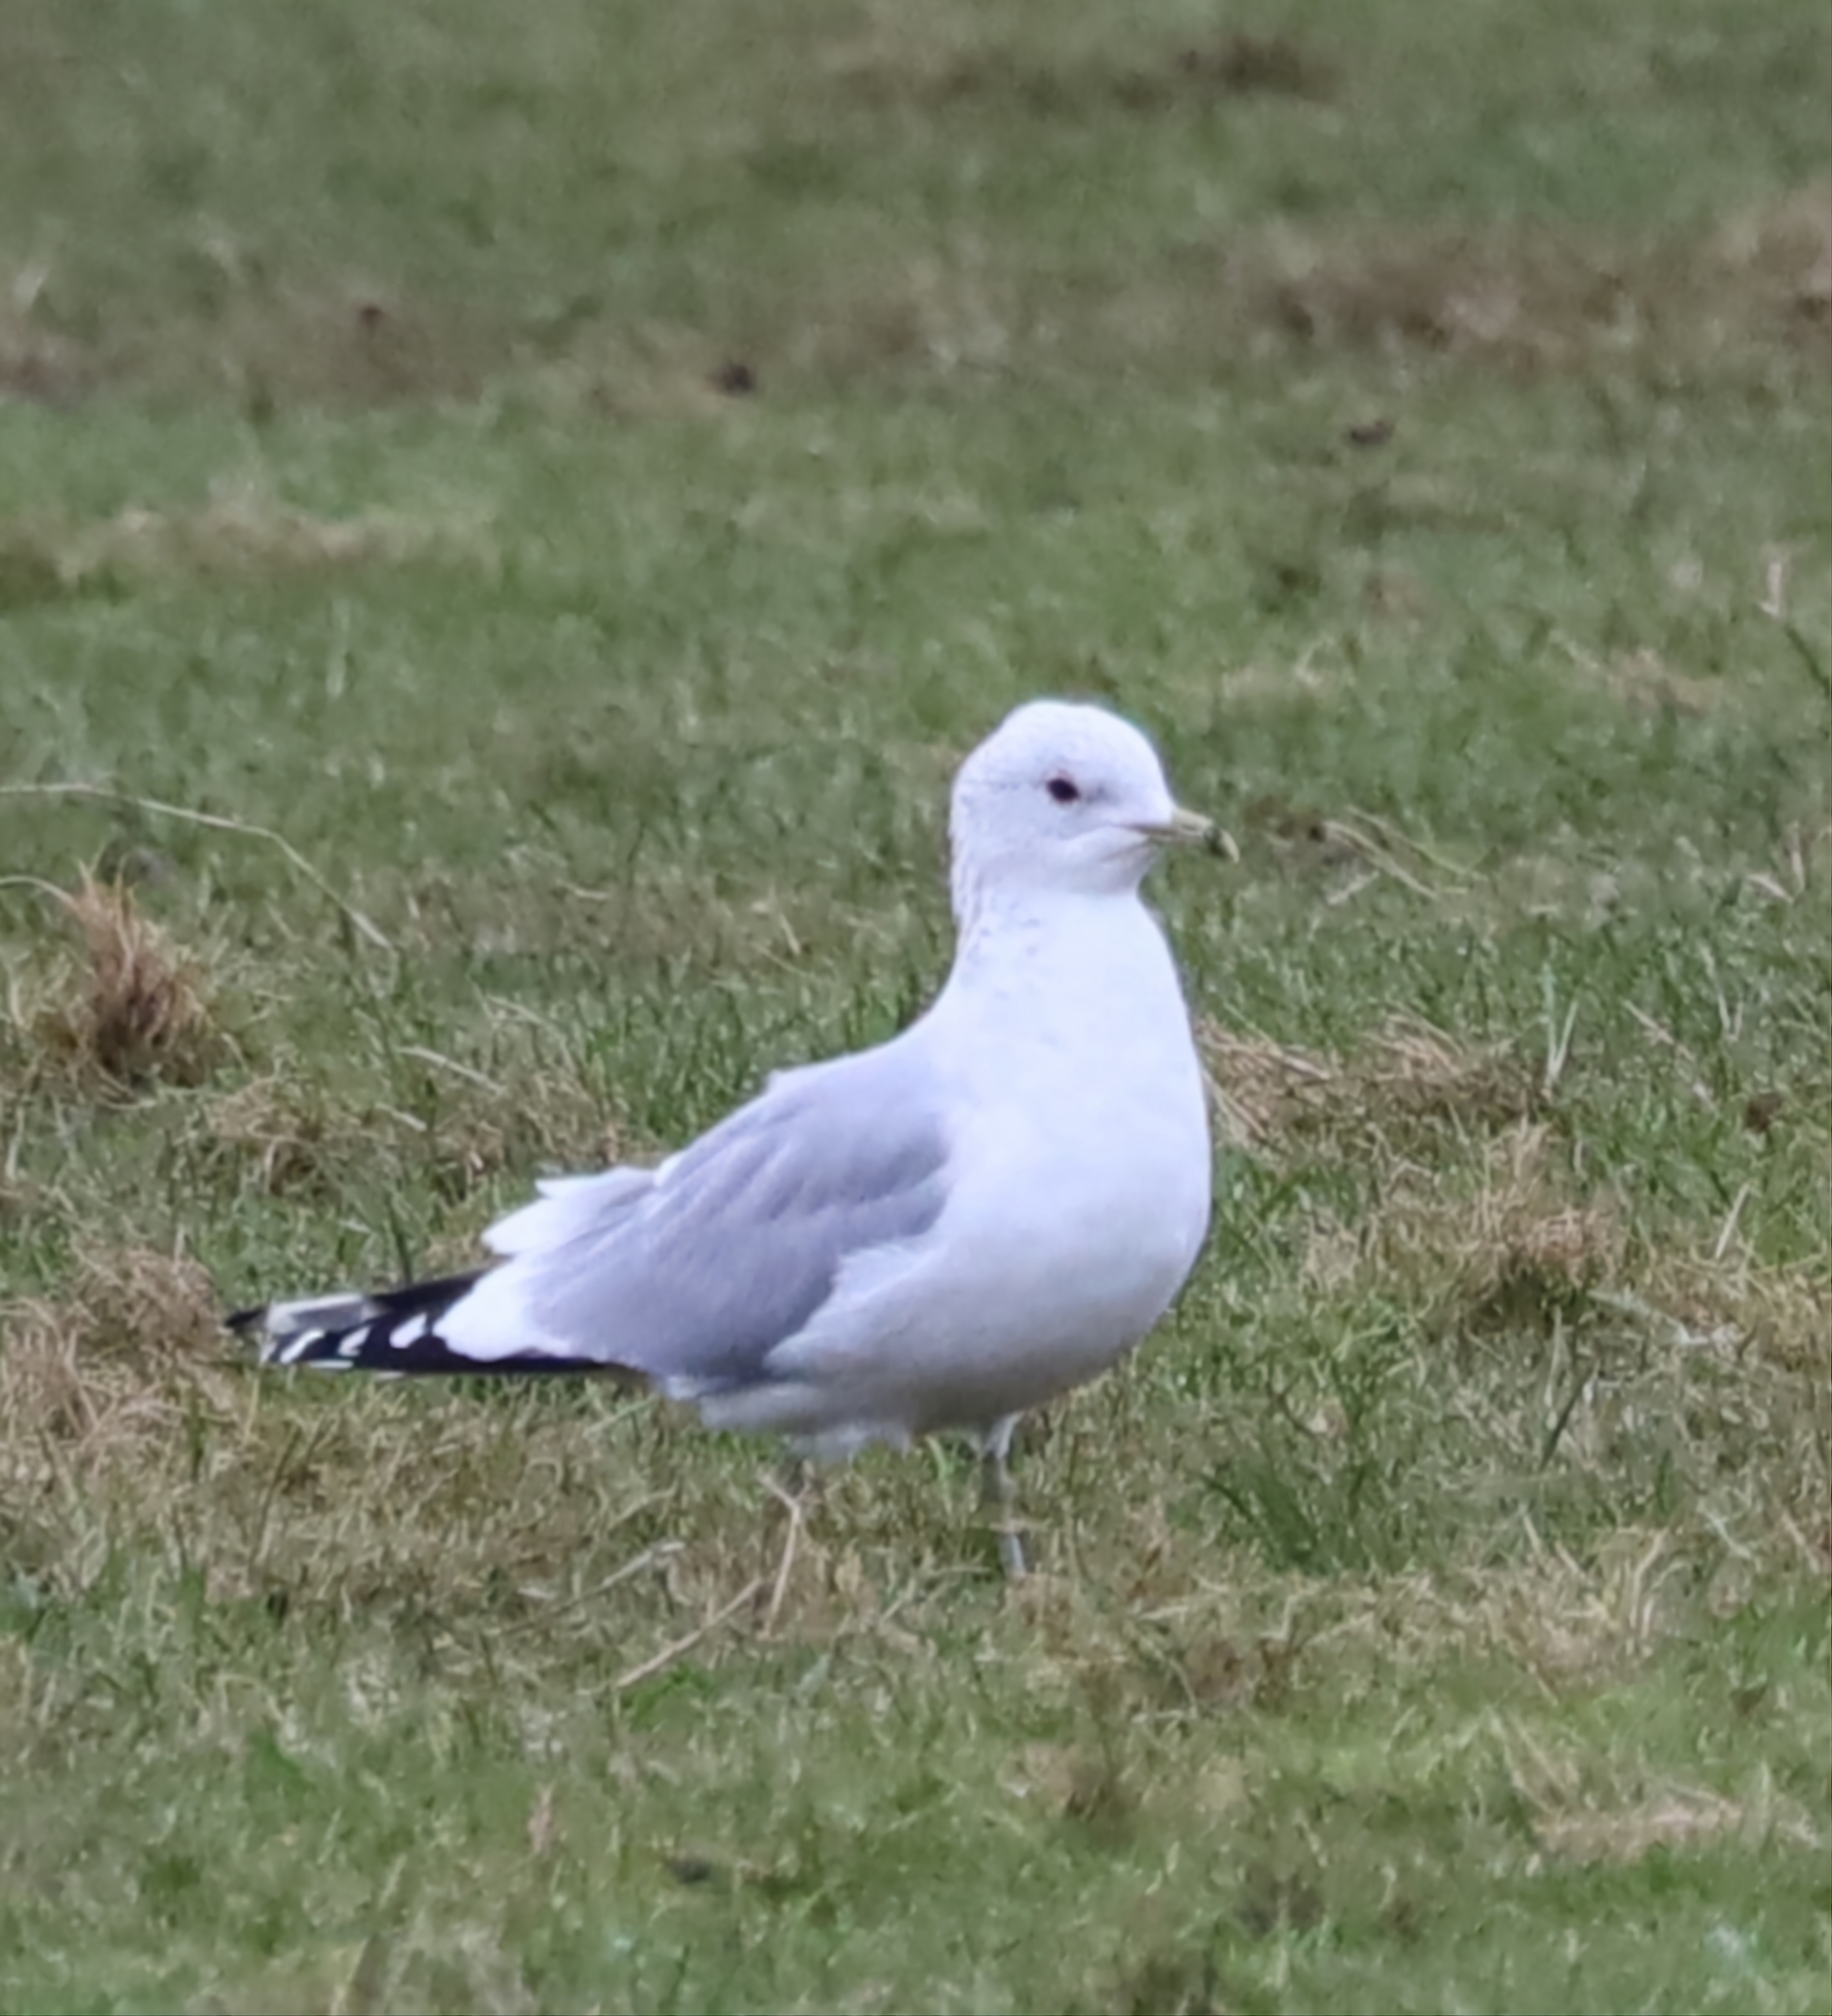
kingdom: Animalia
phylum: Chordata
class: Aves
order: Charadriiformes
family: Laridae
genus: Larus
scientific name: Larus canus
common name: Mew gull
